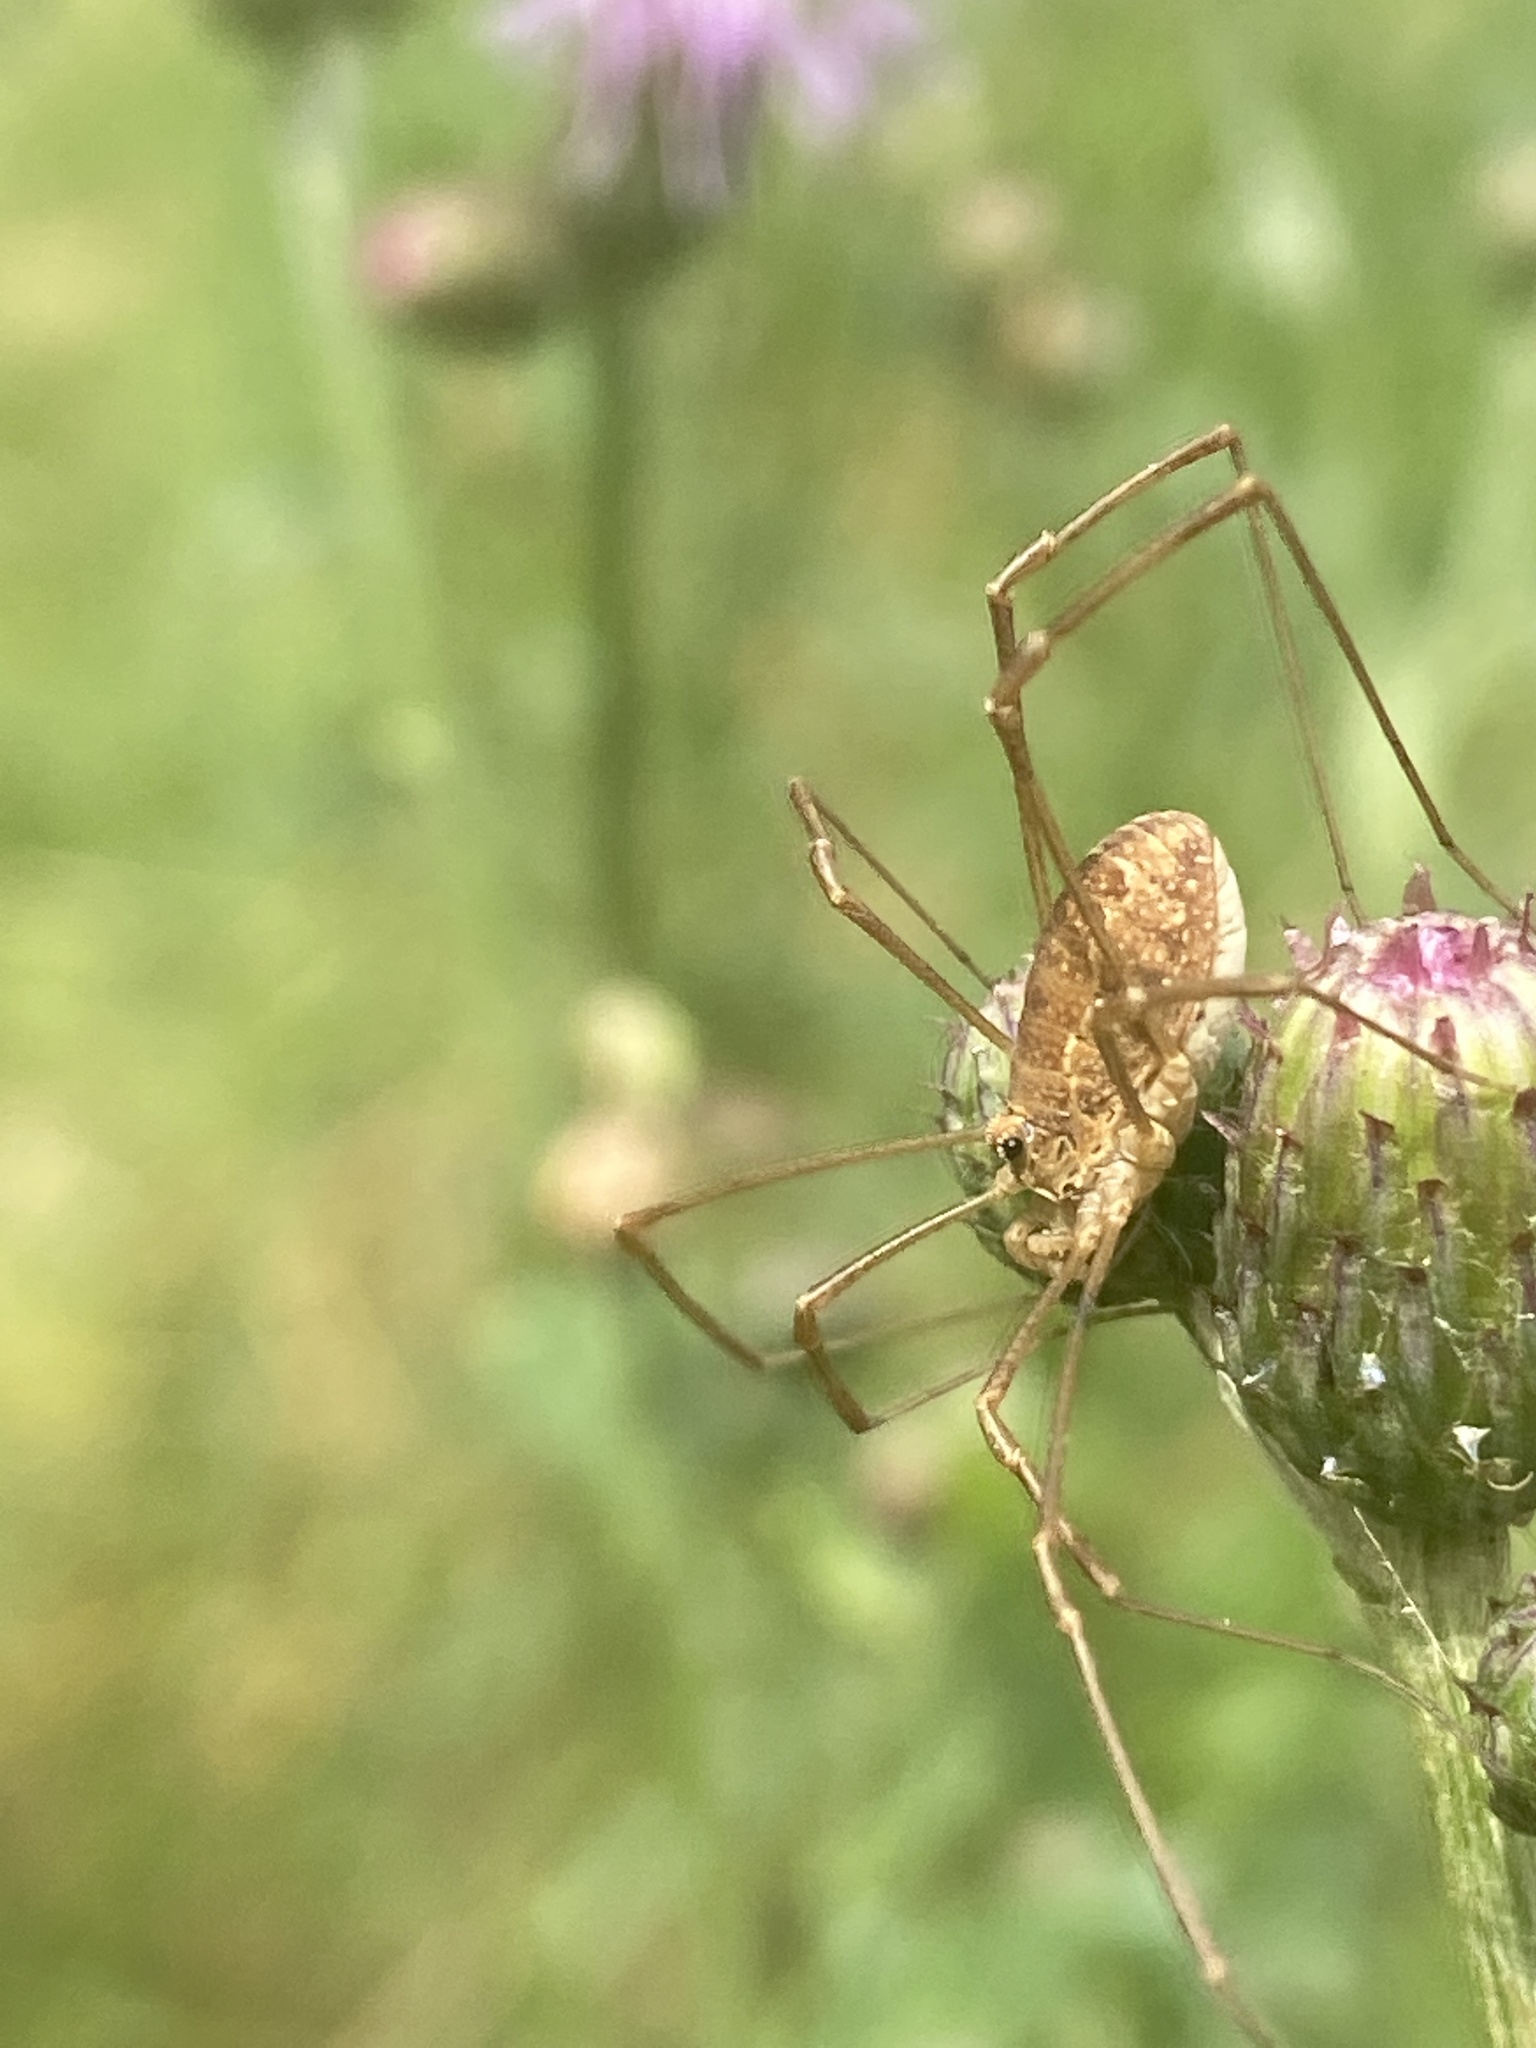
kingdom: Animalia
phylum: Arthropoda
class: Arachnida
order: Opiliones
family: Phalangiidae
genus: Rilaena
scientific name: Rilaena triangularis
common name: Spring harvestman
